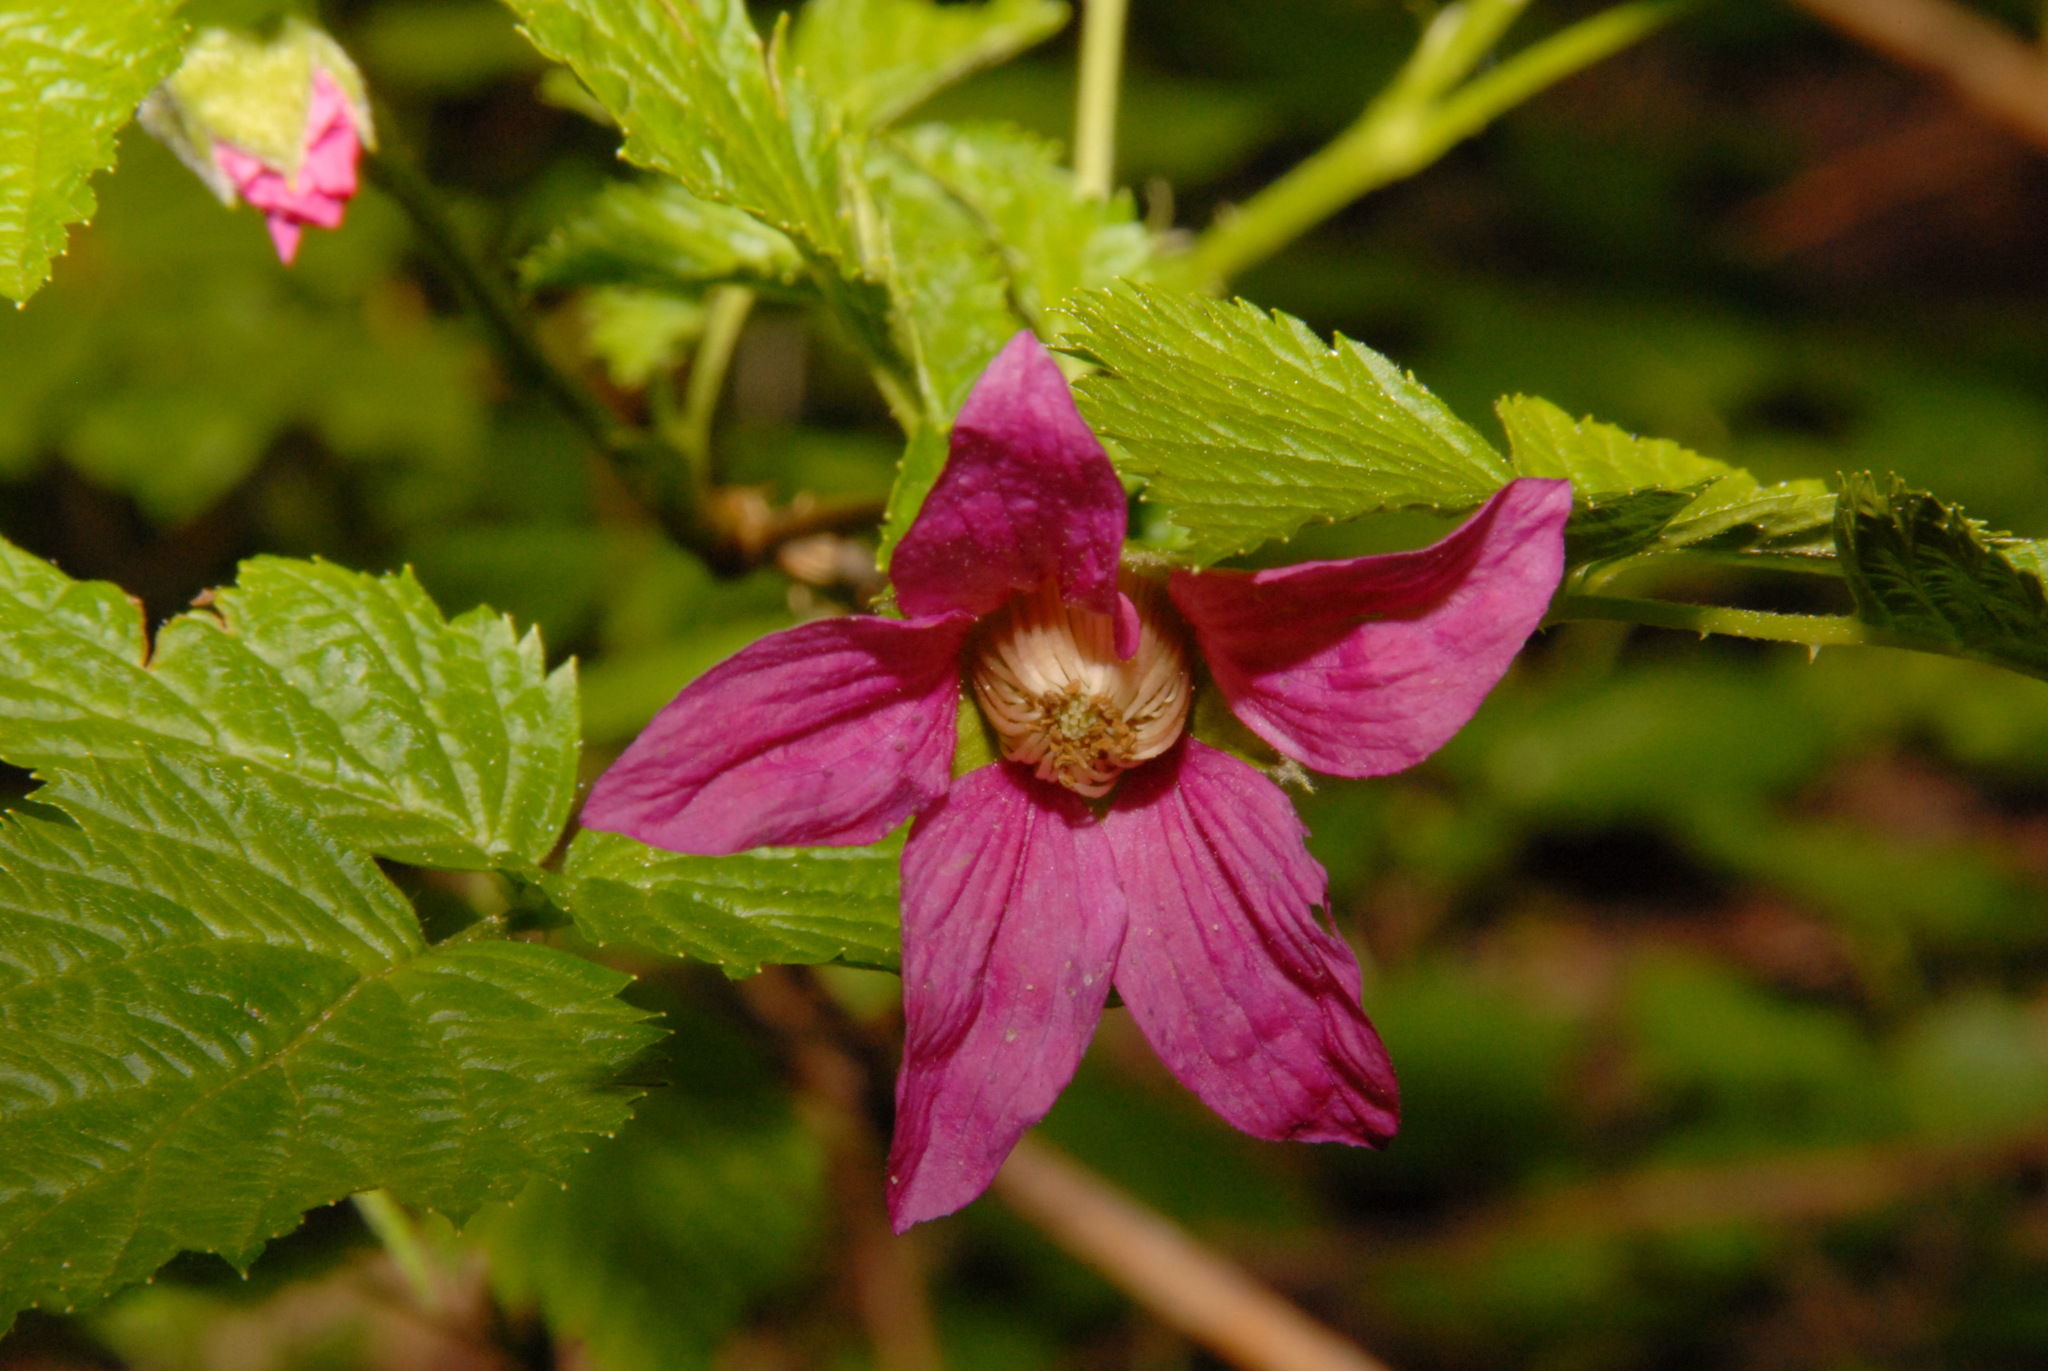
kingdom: Plantae
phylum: Tracheophyta
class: Magnoliopsida
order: Rosales
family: Rosaceae
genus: Rubus
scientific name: Rubus spectabilis
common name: Salmonberry
